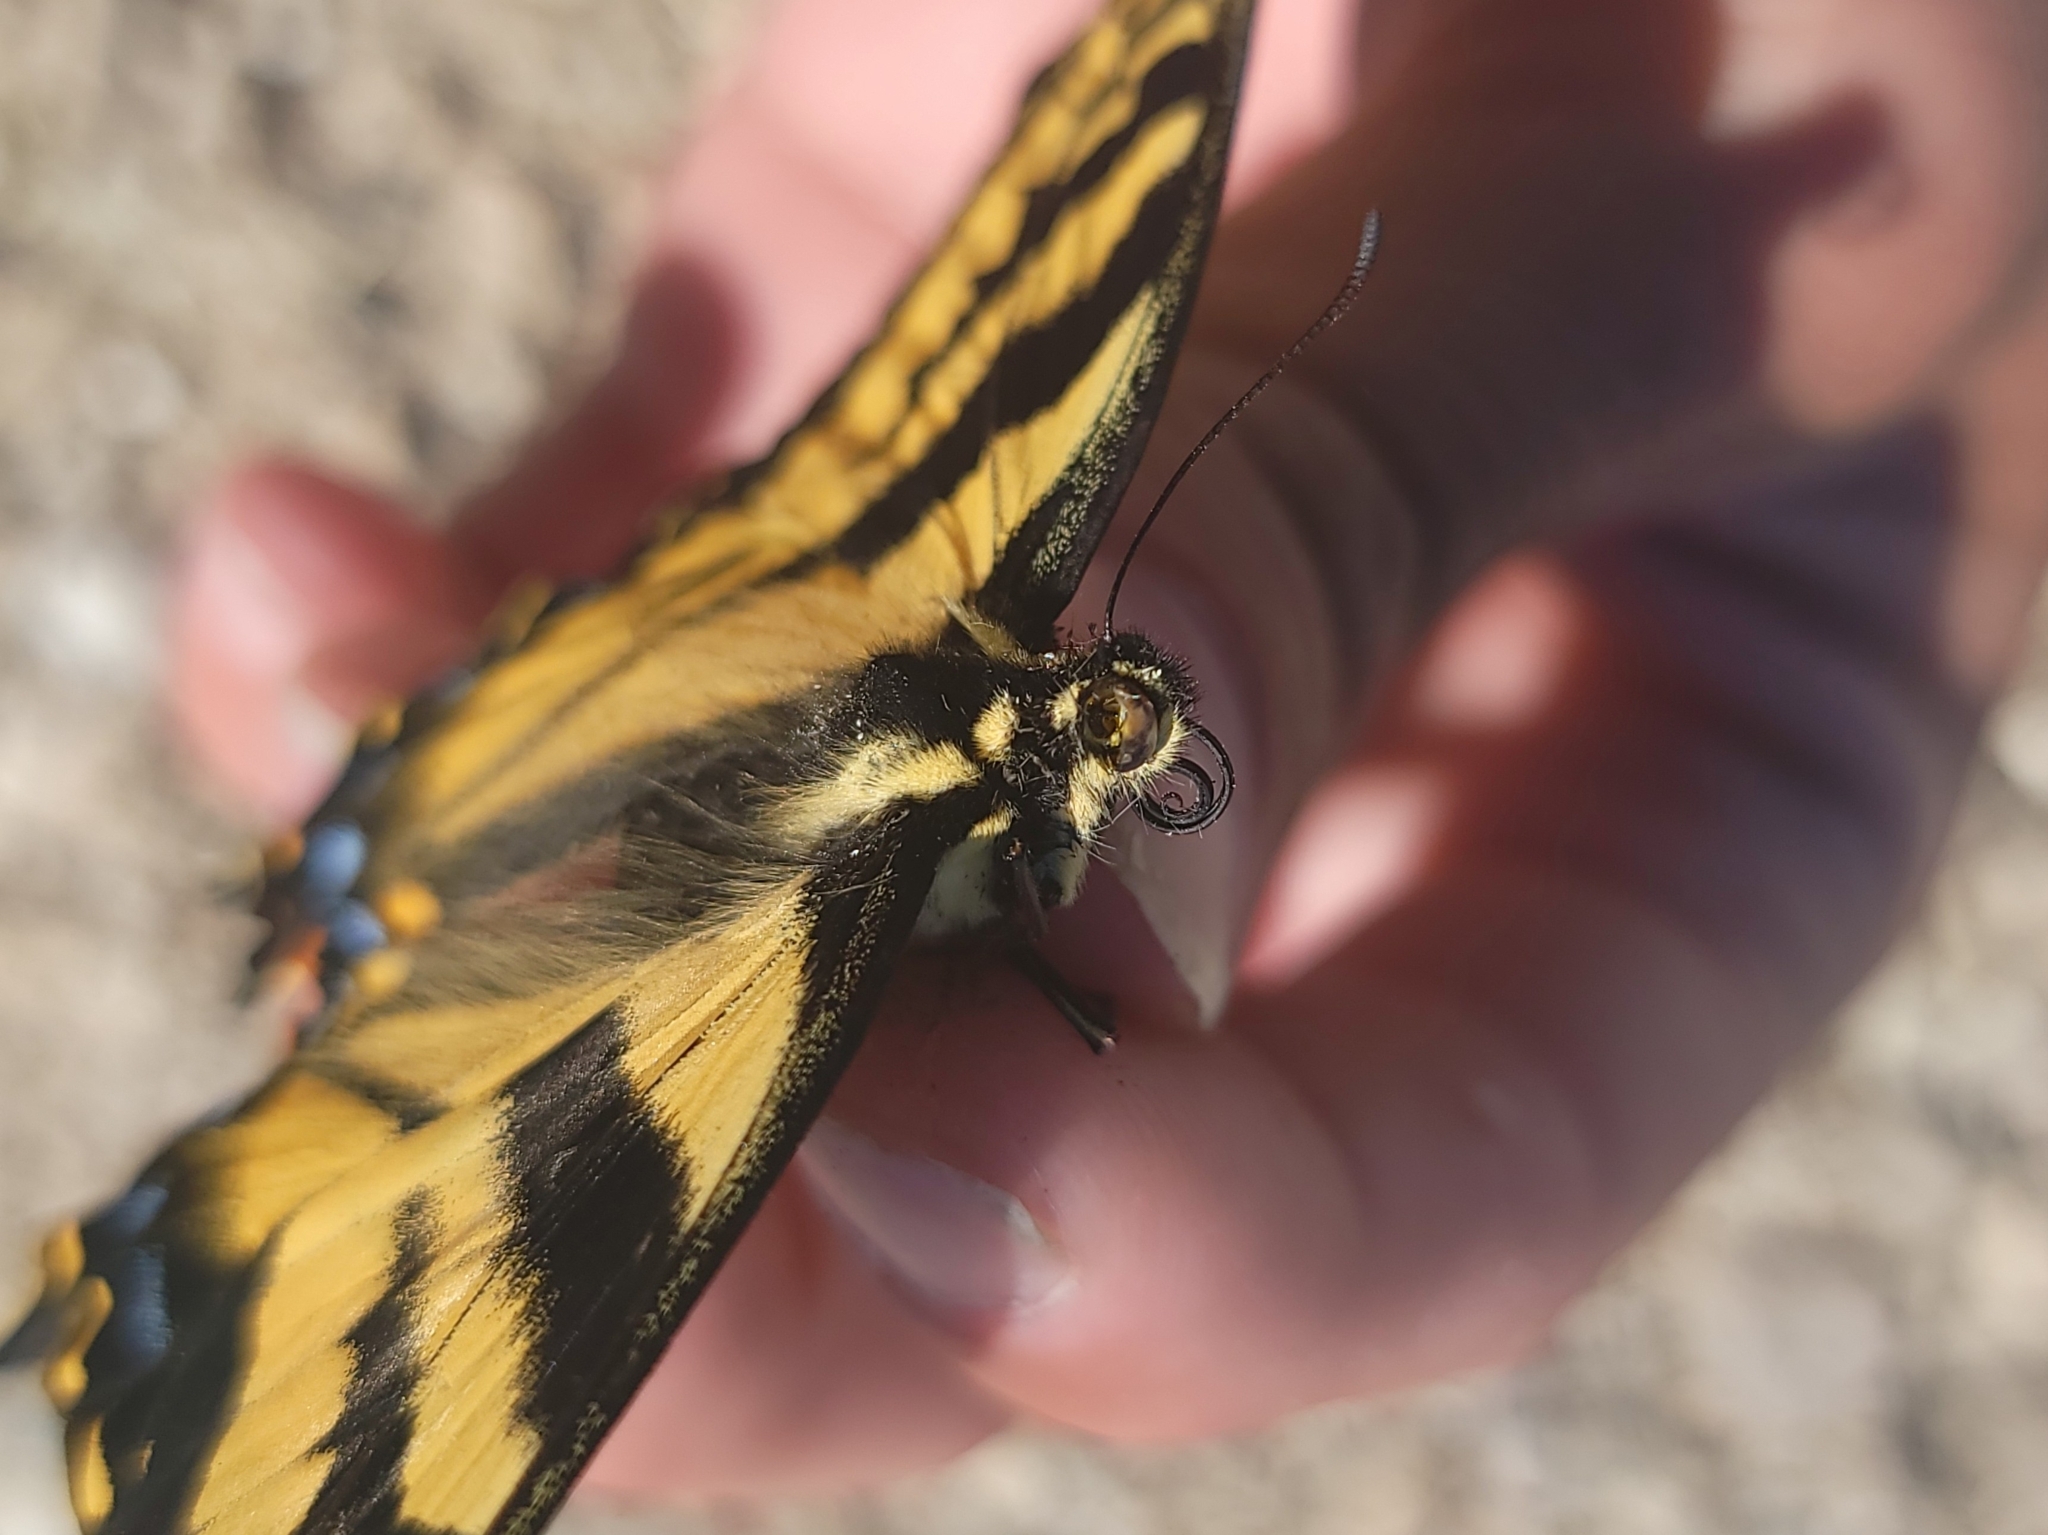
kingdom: Animalia
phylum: Arthropoda
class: Insecta
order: Lepidoptera
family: Papilionidae
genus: Papilio
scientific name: Papilio rutulus
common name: Western tiger swallowtail
